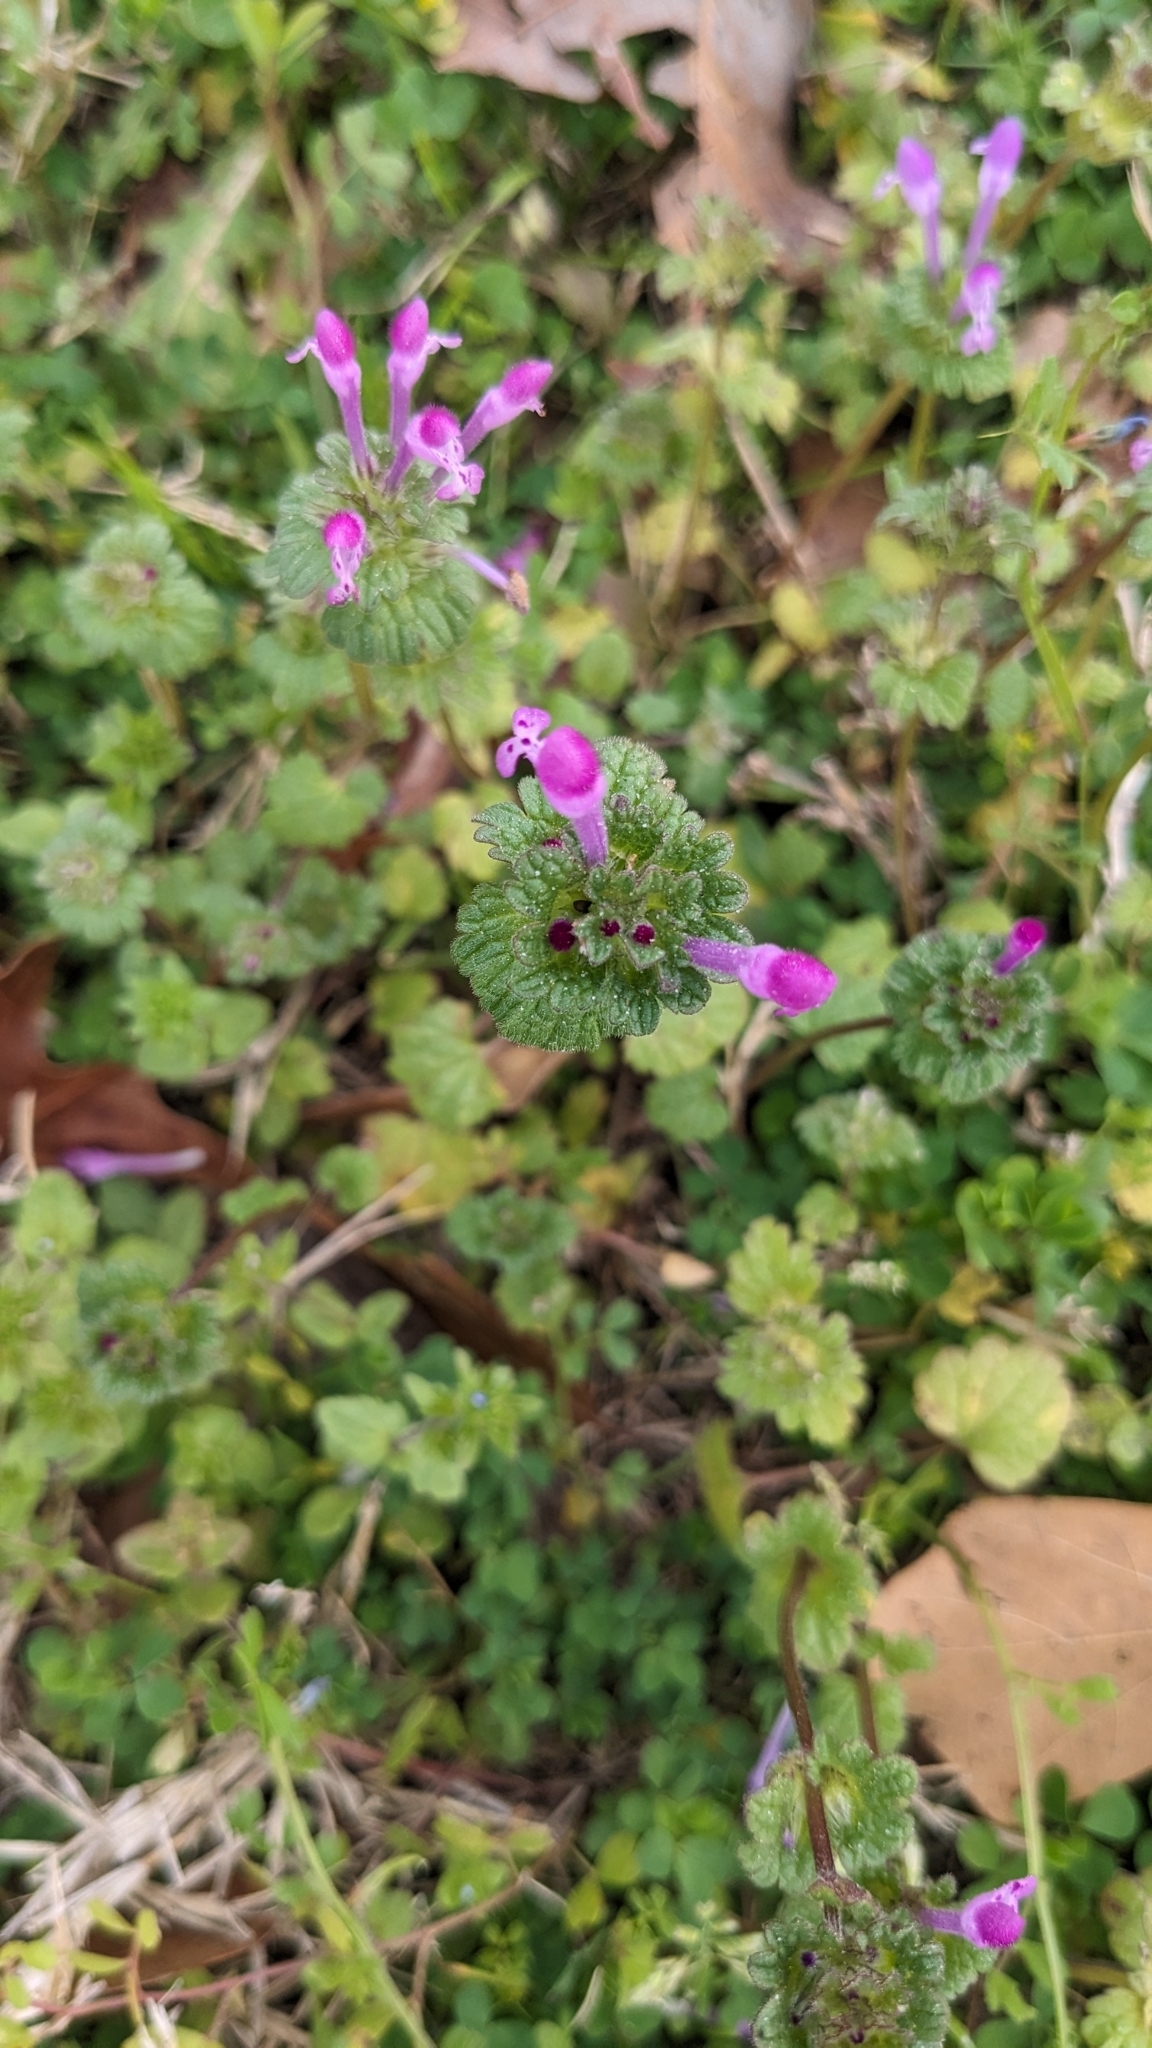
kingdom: Plantae
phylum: Tracheophyta
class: Magnoliopsida
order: Lamiales
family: Lamiaceae
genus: Lamium
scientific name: Lamium amplexicaule
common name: Henbit dead-nettle
